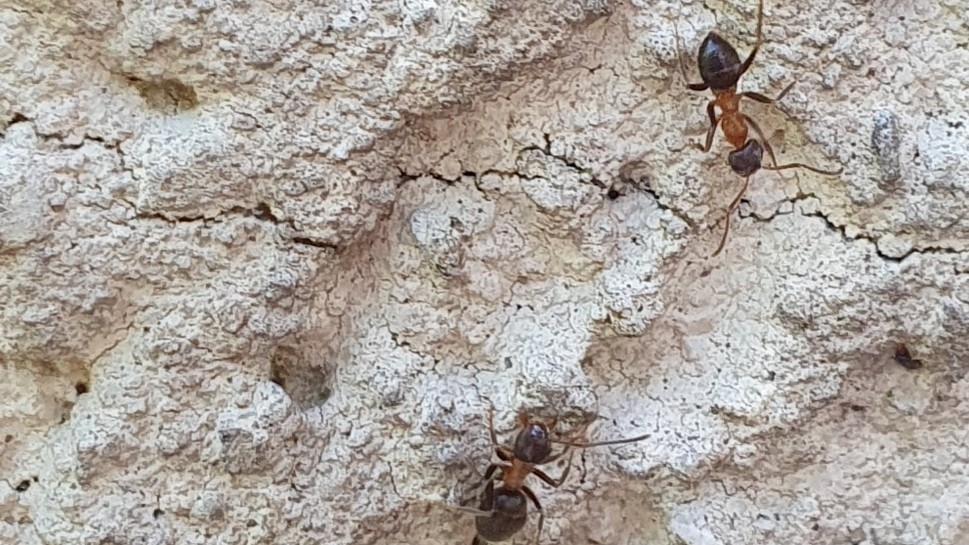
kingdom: Animalia
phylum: Arthropoda
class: Insecta
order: Hymenoptera
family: Formicidae
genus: Lasius
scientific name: Lasius emarginatus
